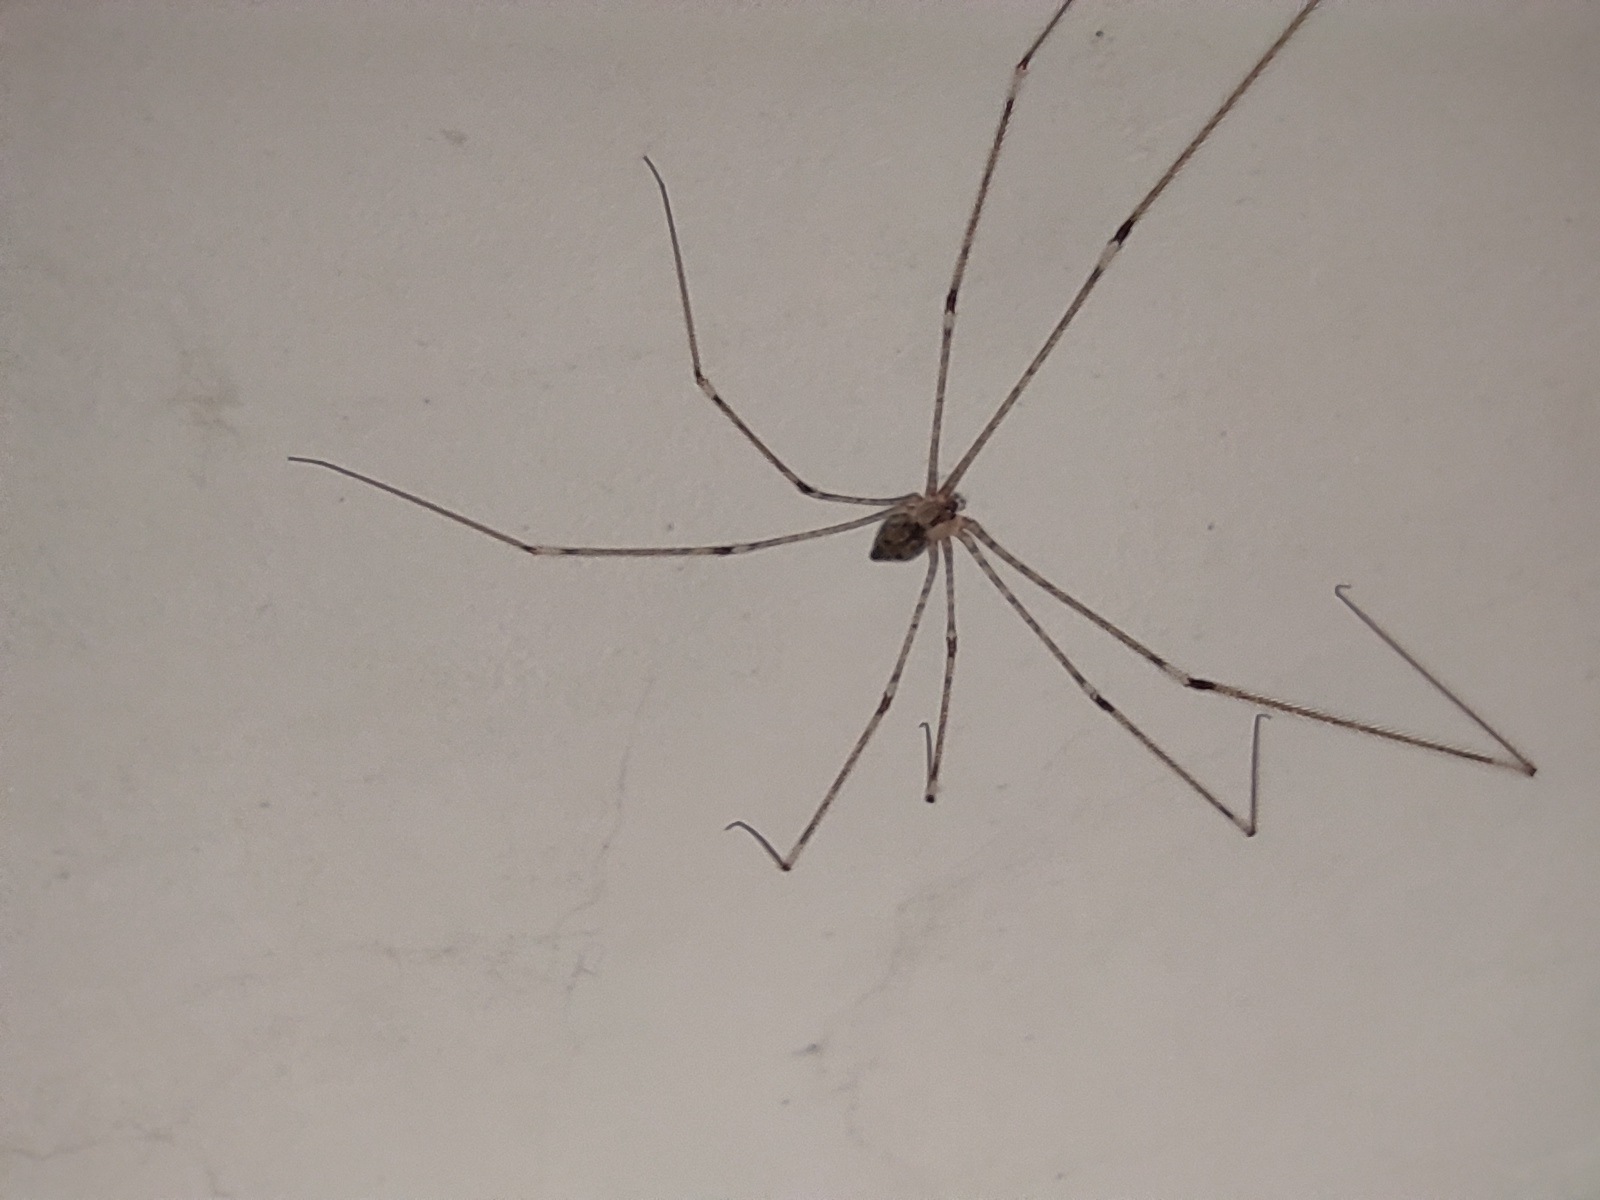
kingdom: Animalia
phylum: Arthropoda
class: Arachnida
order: Araneae
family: Pholcidae
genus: Crossopriza
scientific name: Crossopriza lyoni
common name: Cellar spiders
